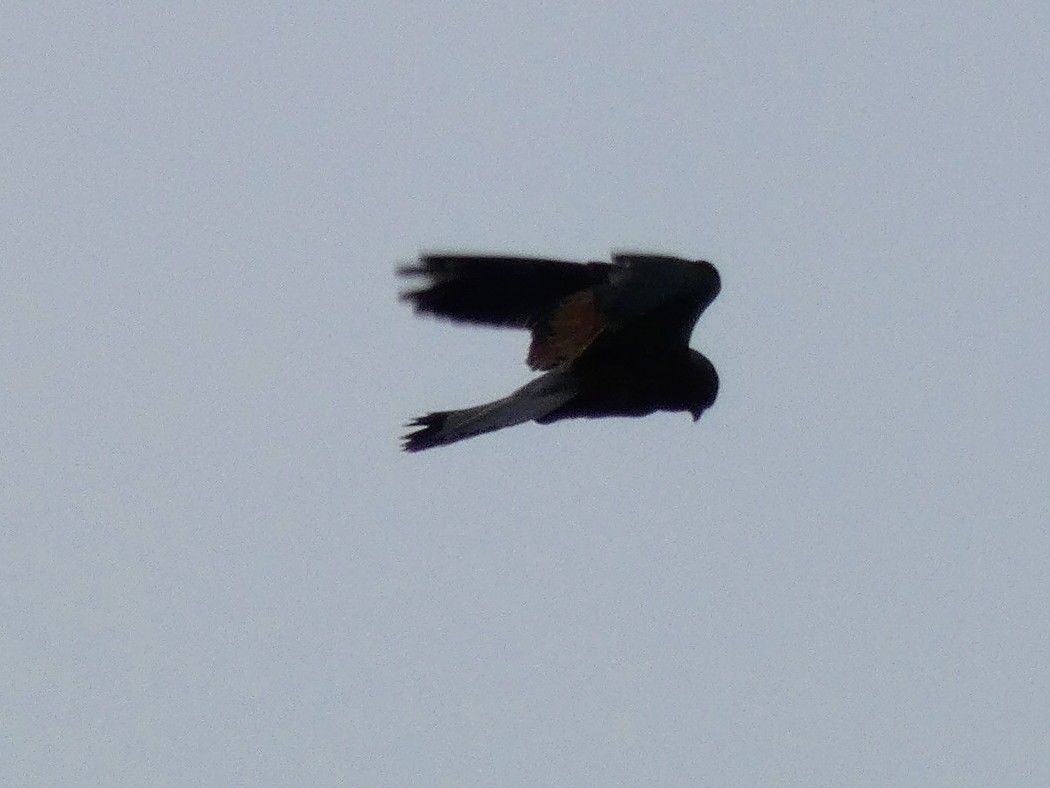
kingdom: Animalia
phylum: Chordata
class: Aves
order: Falconiformes
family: Falconidae
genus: Falco
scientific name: Falco tinnunculus
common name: Common kestrel
